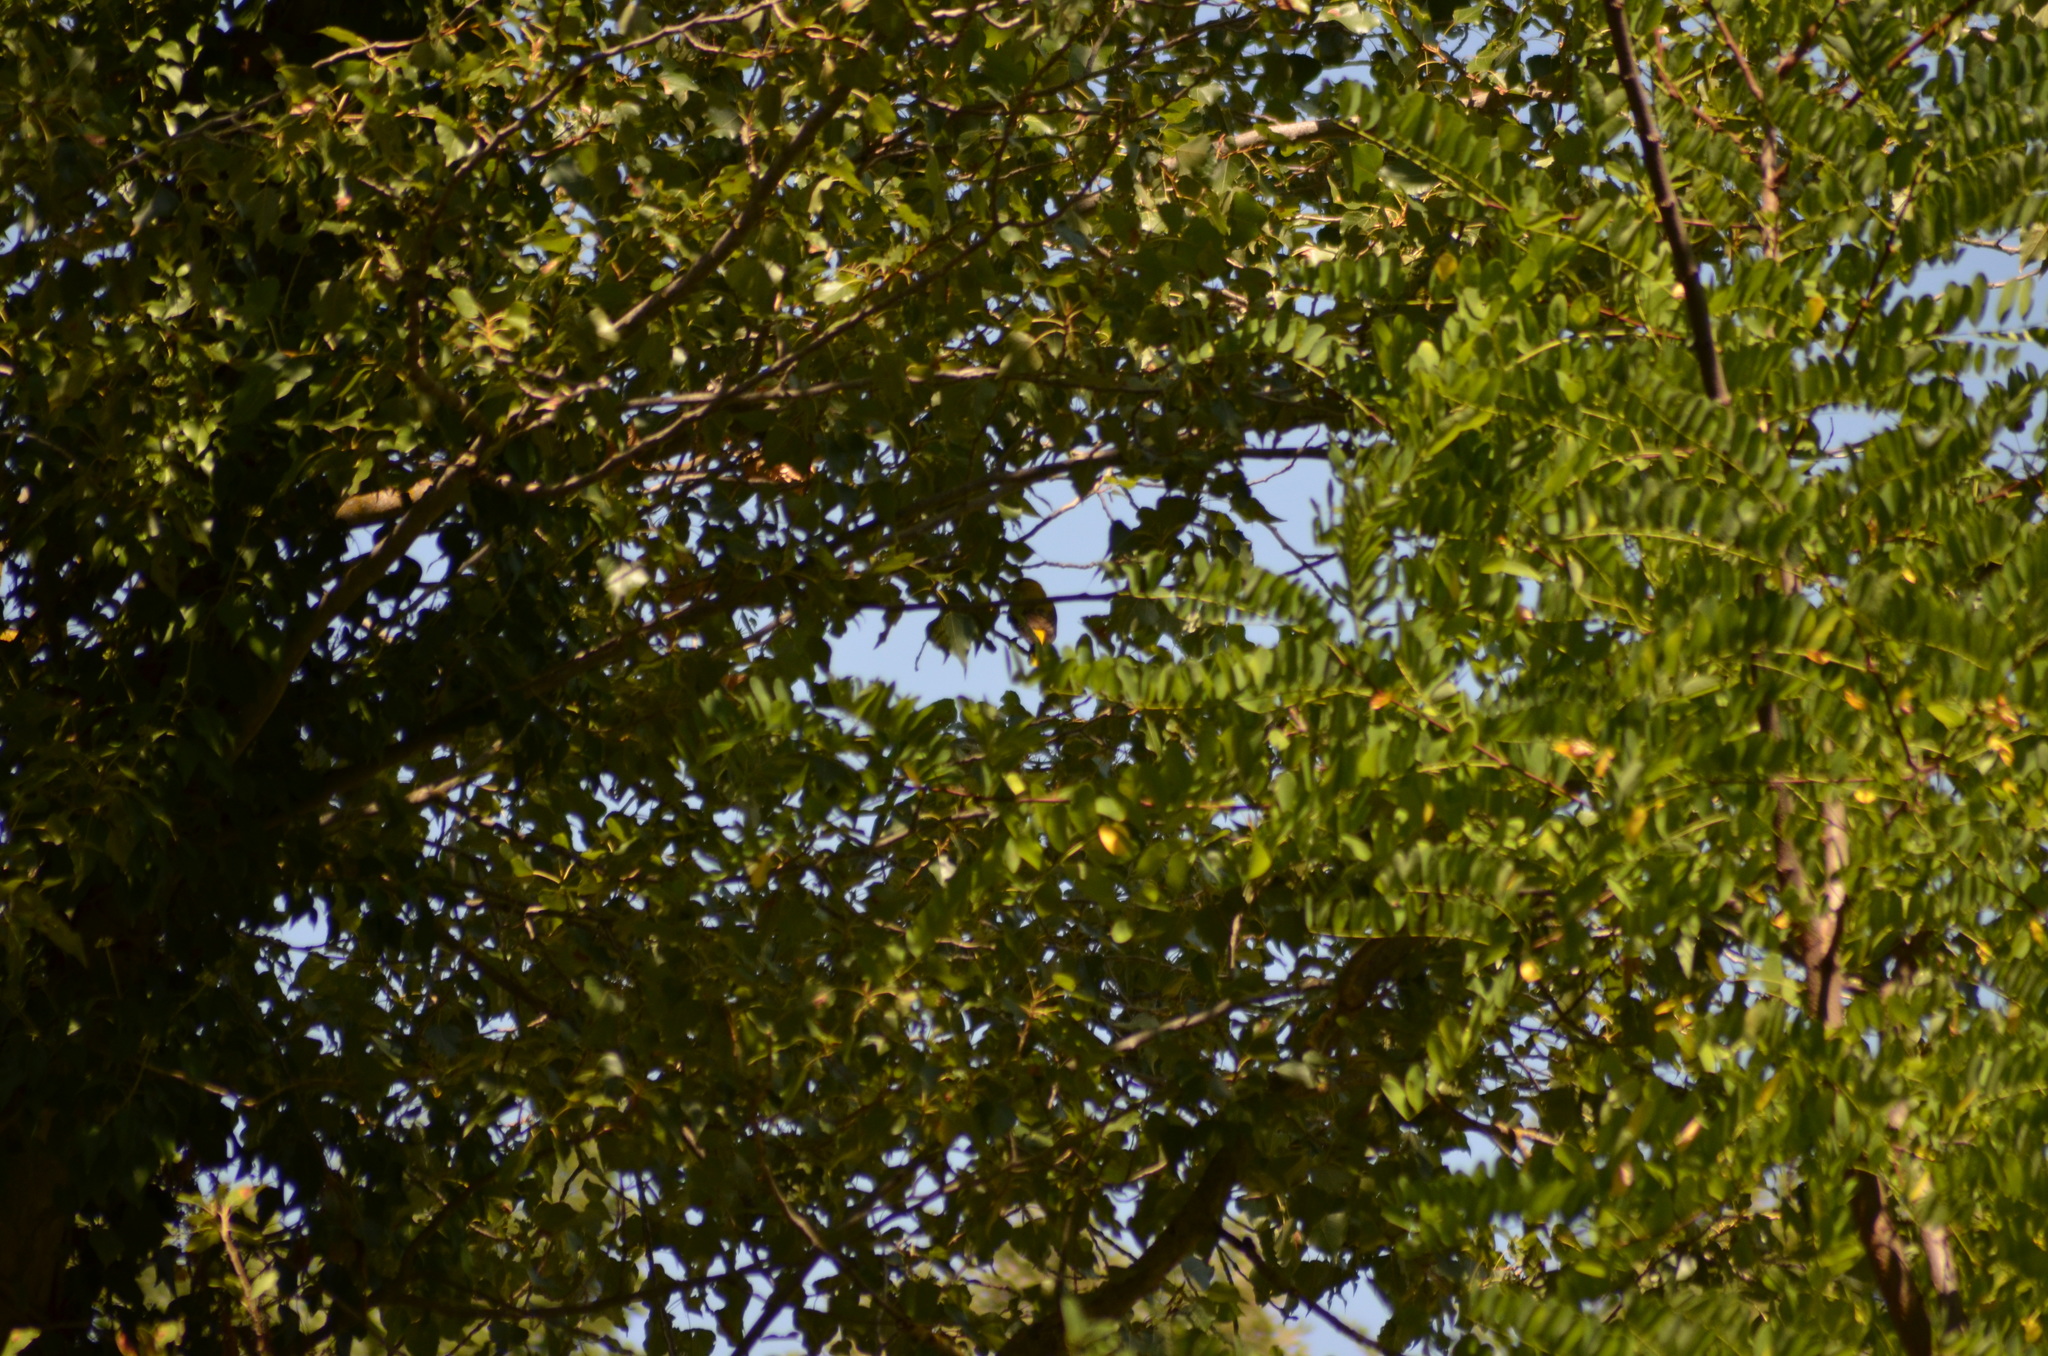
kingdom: Plantae
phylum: Tracheophyta
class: Liliopsida
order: Poales
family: Poaceae
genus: Chloris
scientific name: Chloris chloris
